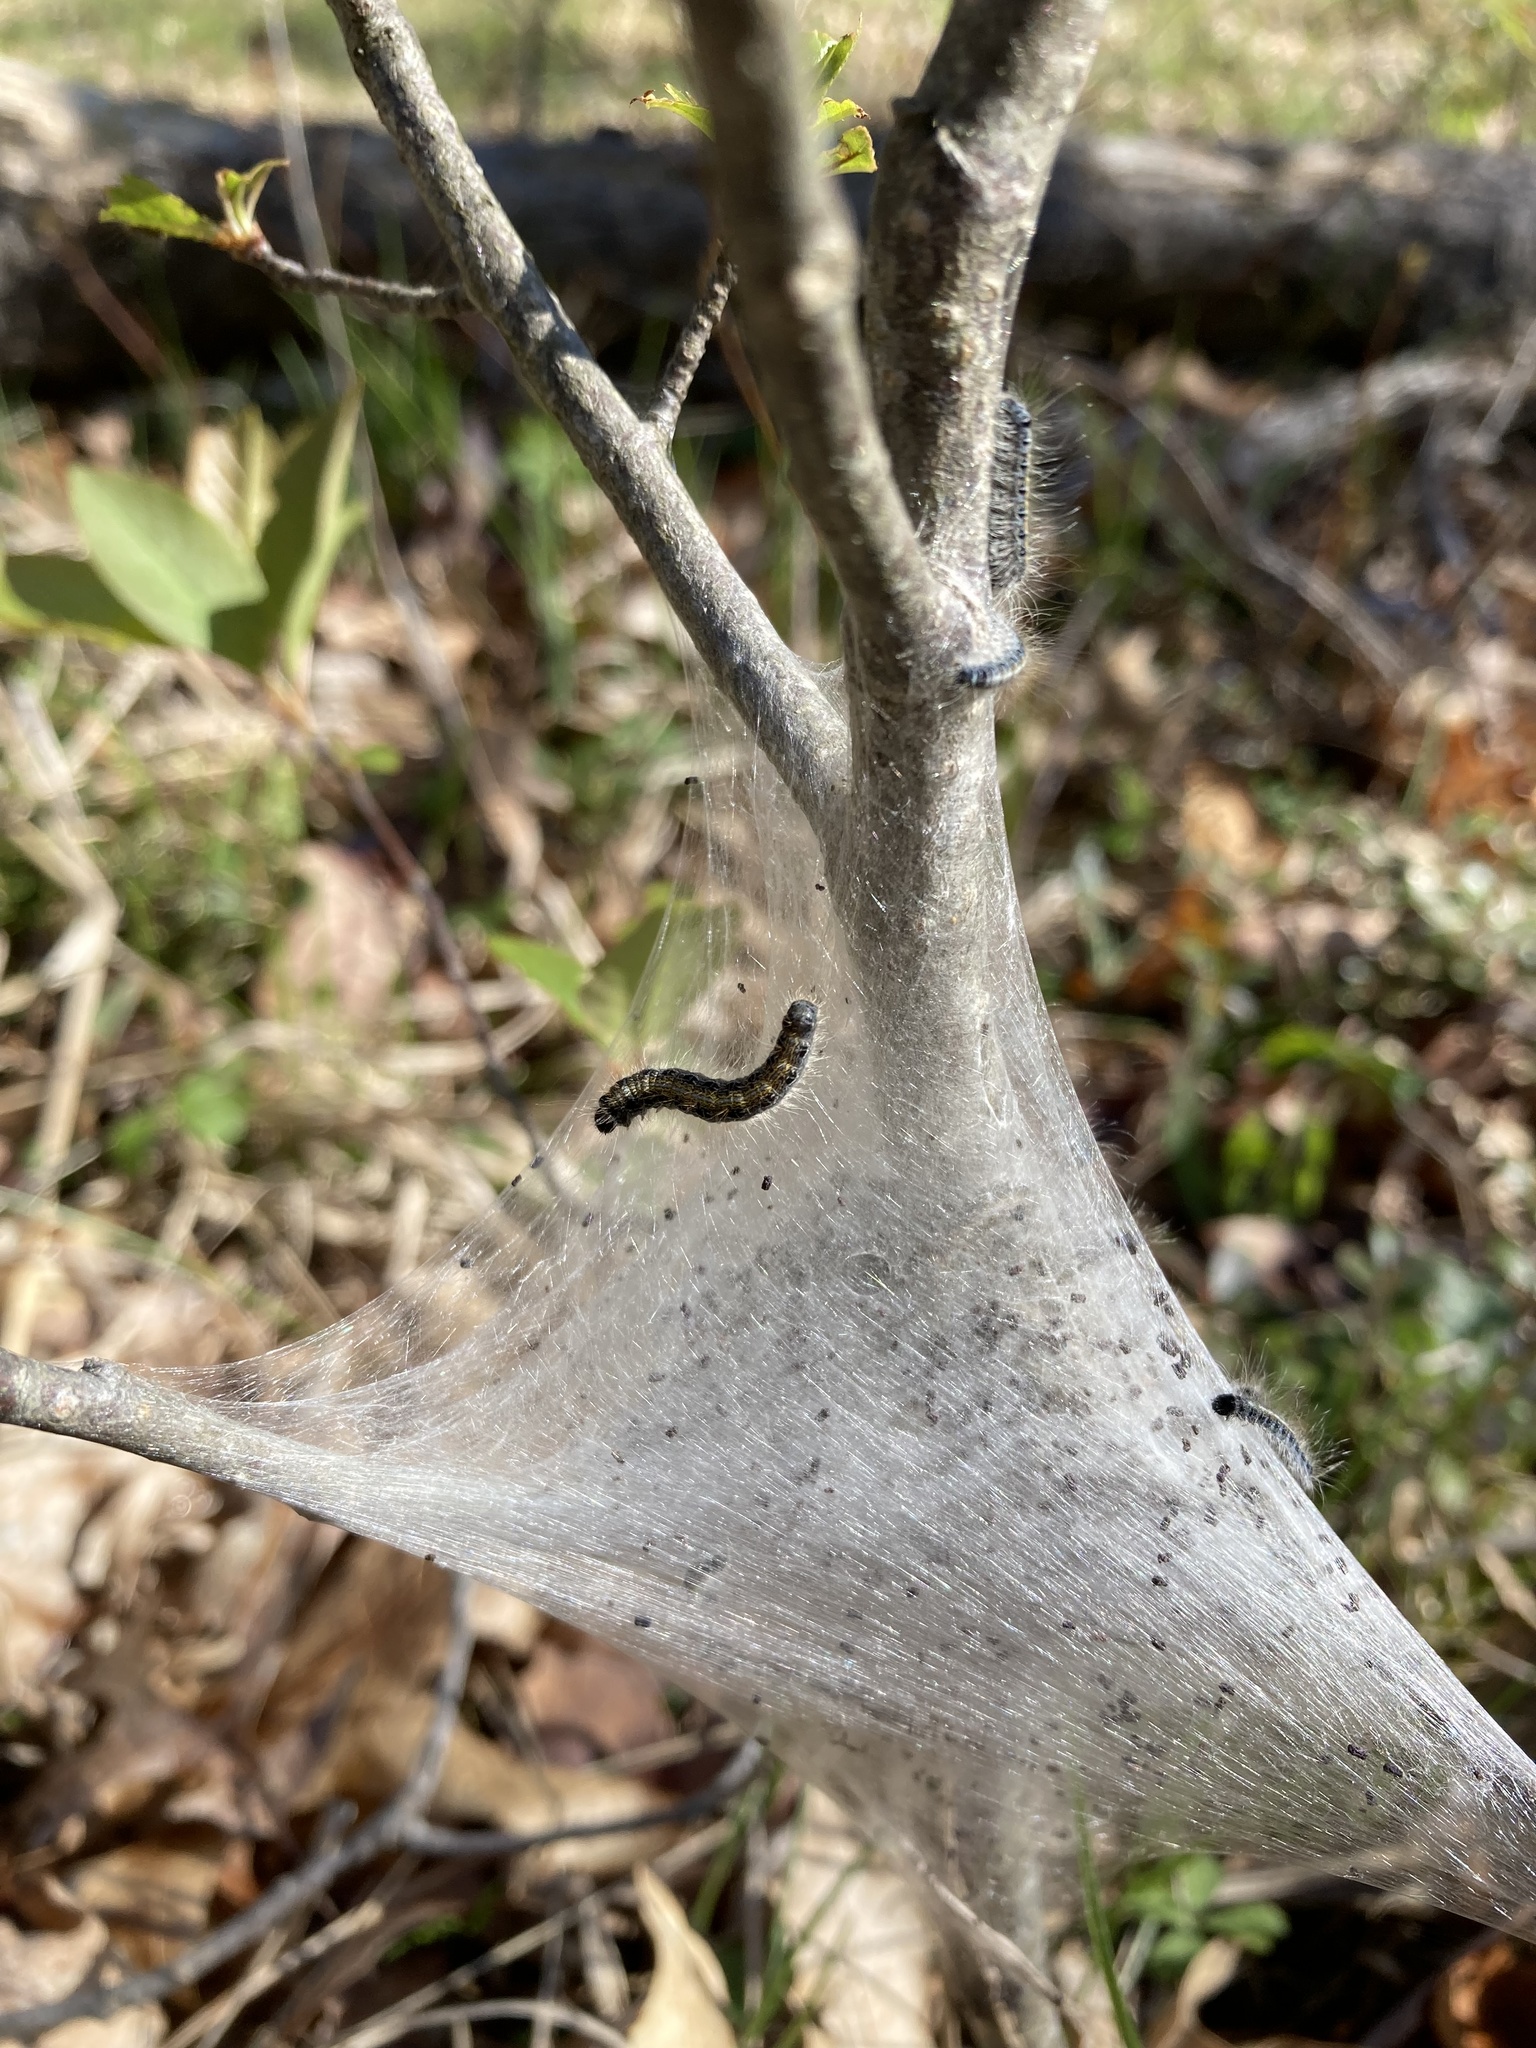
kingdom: Animalia
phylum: Arthropoda
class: Insecta
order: Lepidoptera
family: Lasiocampidae
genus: Malacosoma
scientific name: Malacosoma americana
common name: Eastern tent caterpillar moth
